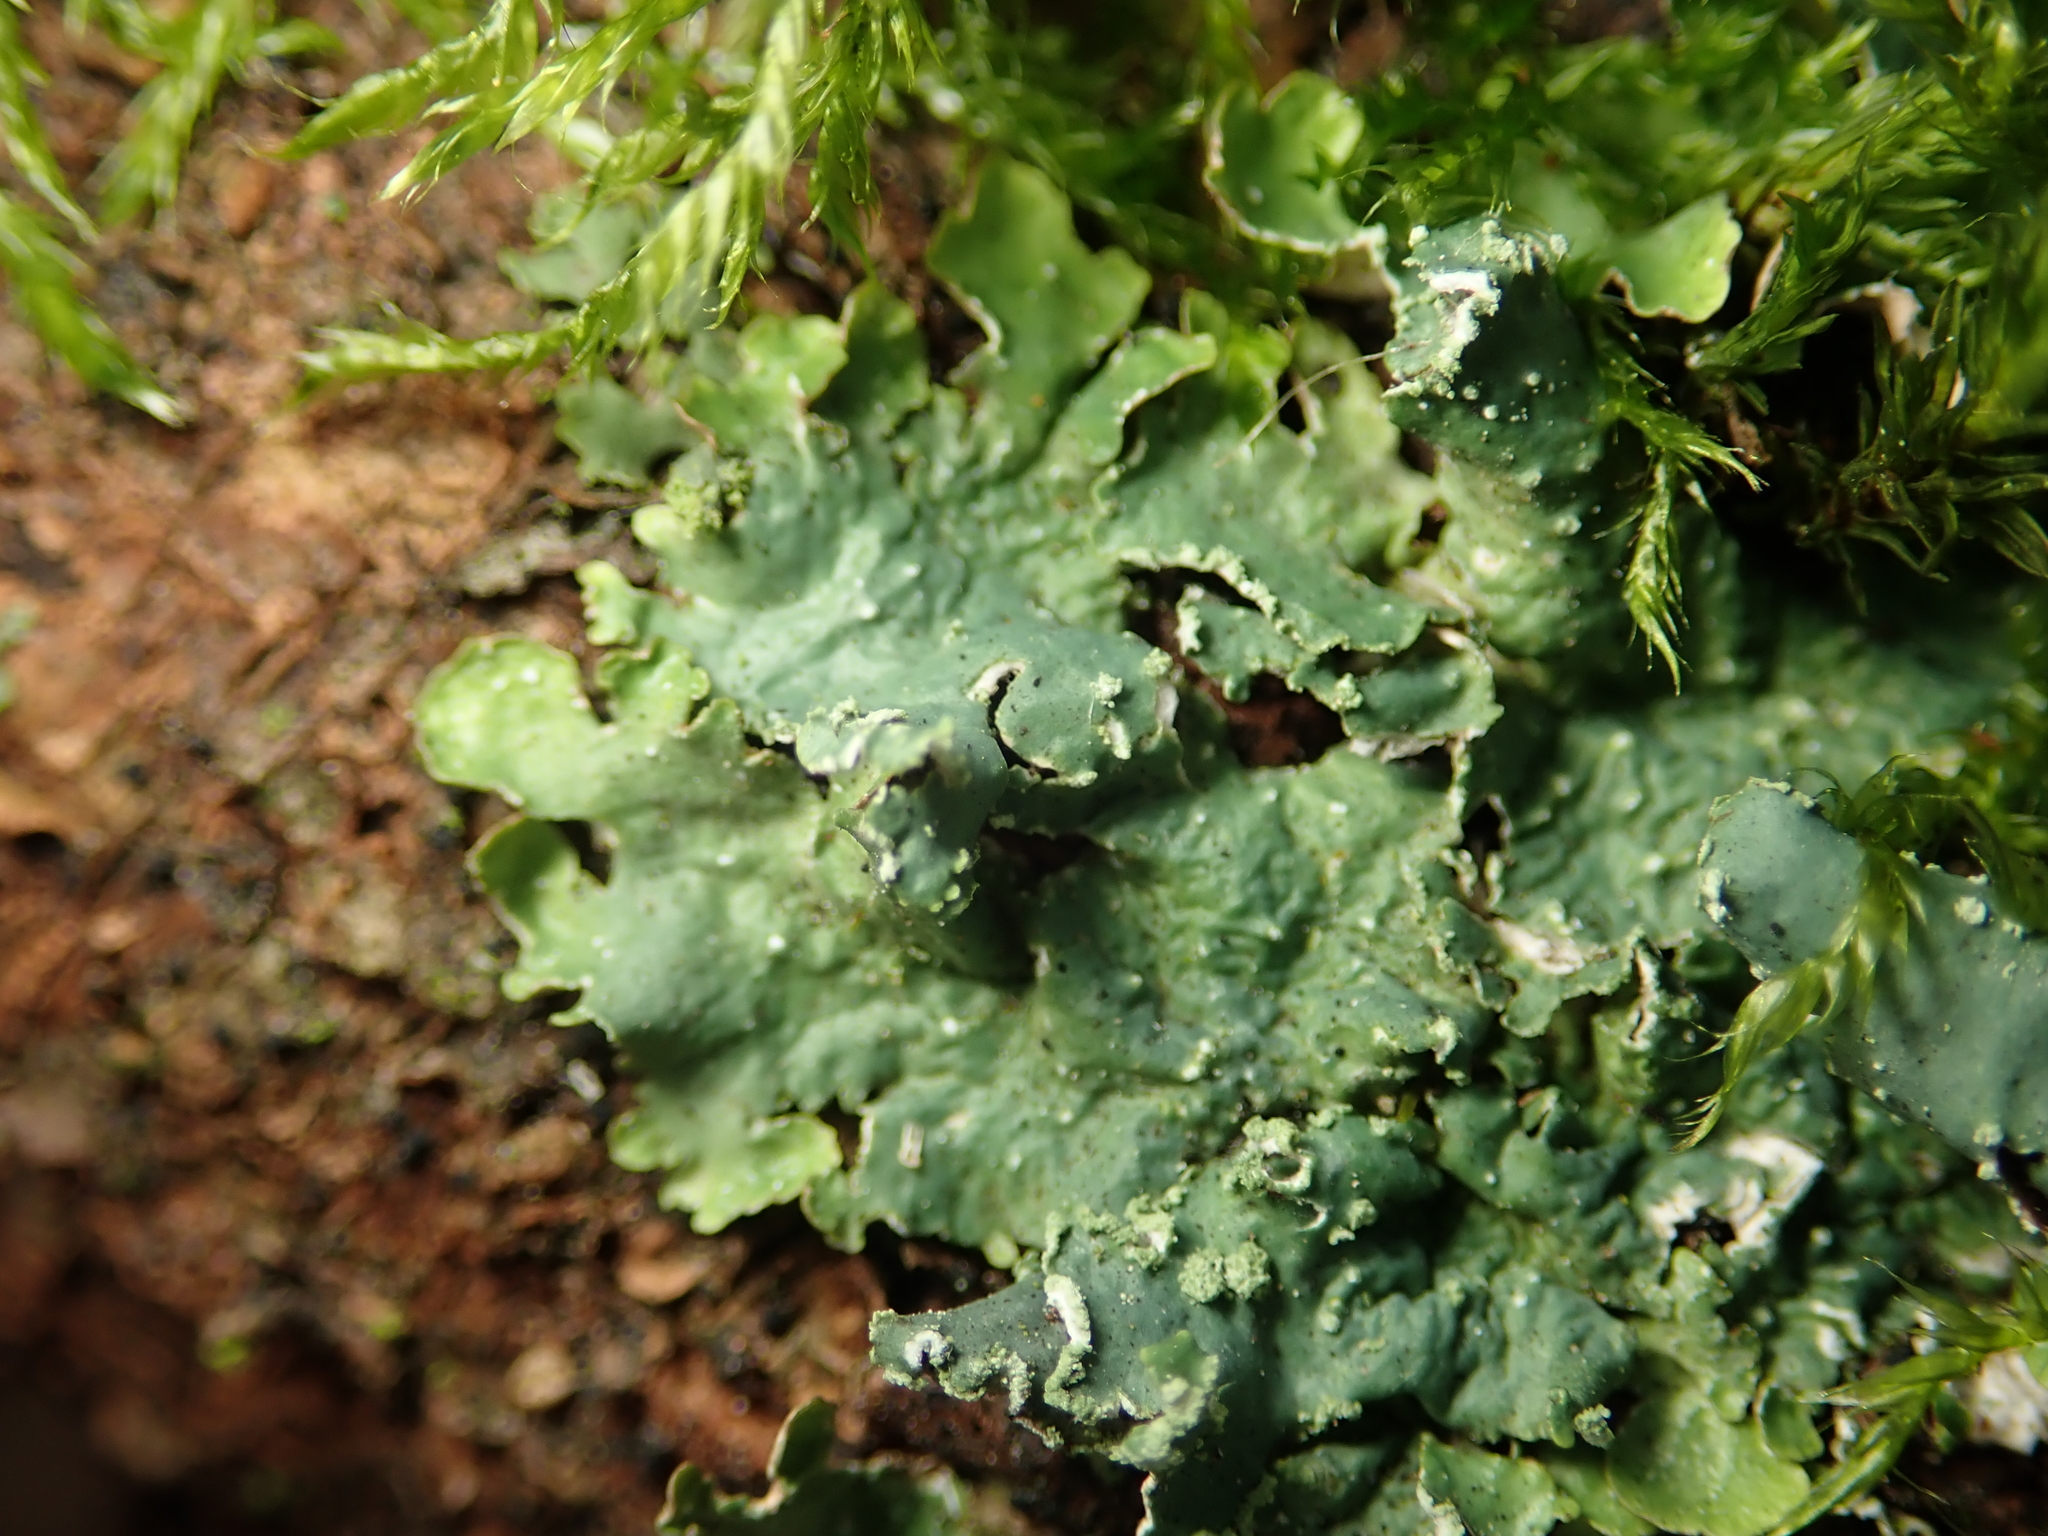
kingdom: Fungi
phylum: Ascomycota
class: Lecanoromycetes
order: Lecanorales
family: Parmeliaceae
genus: Punctelia
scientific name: Punctelia jeckeri
